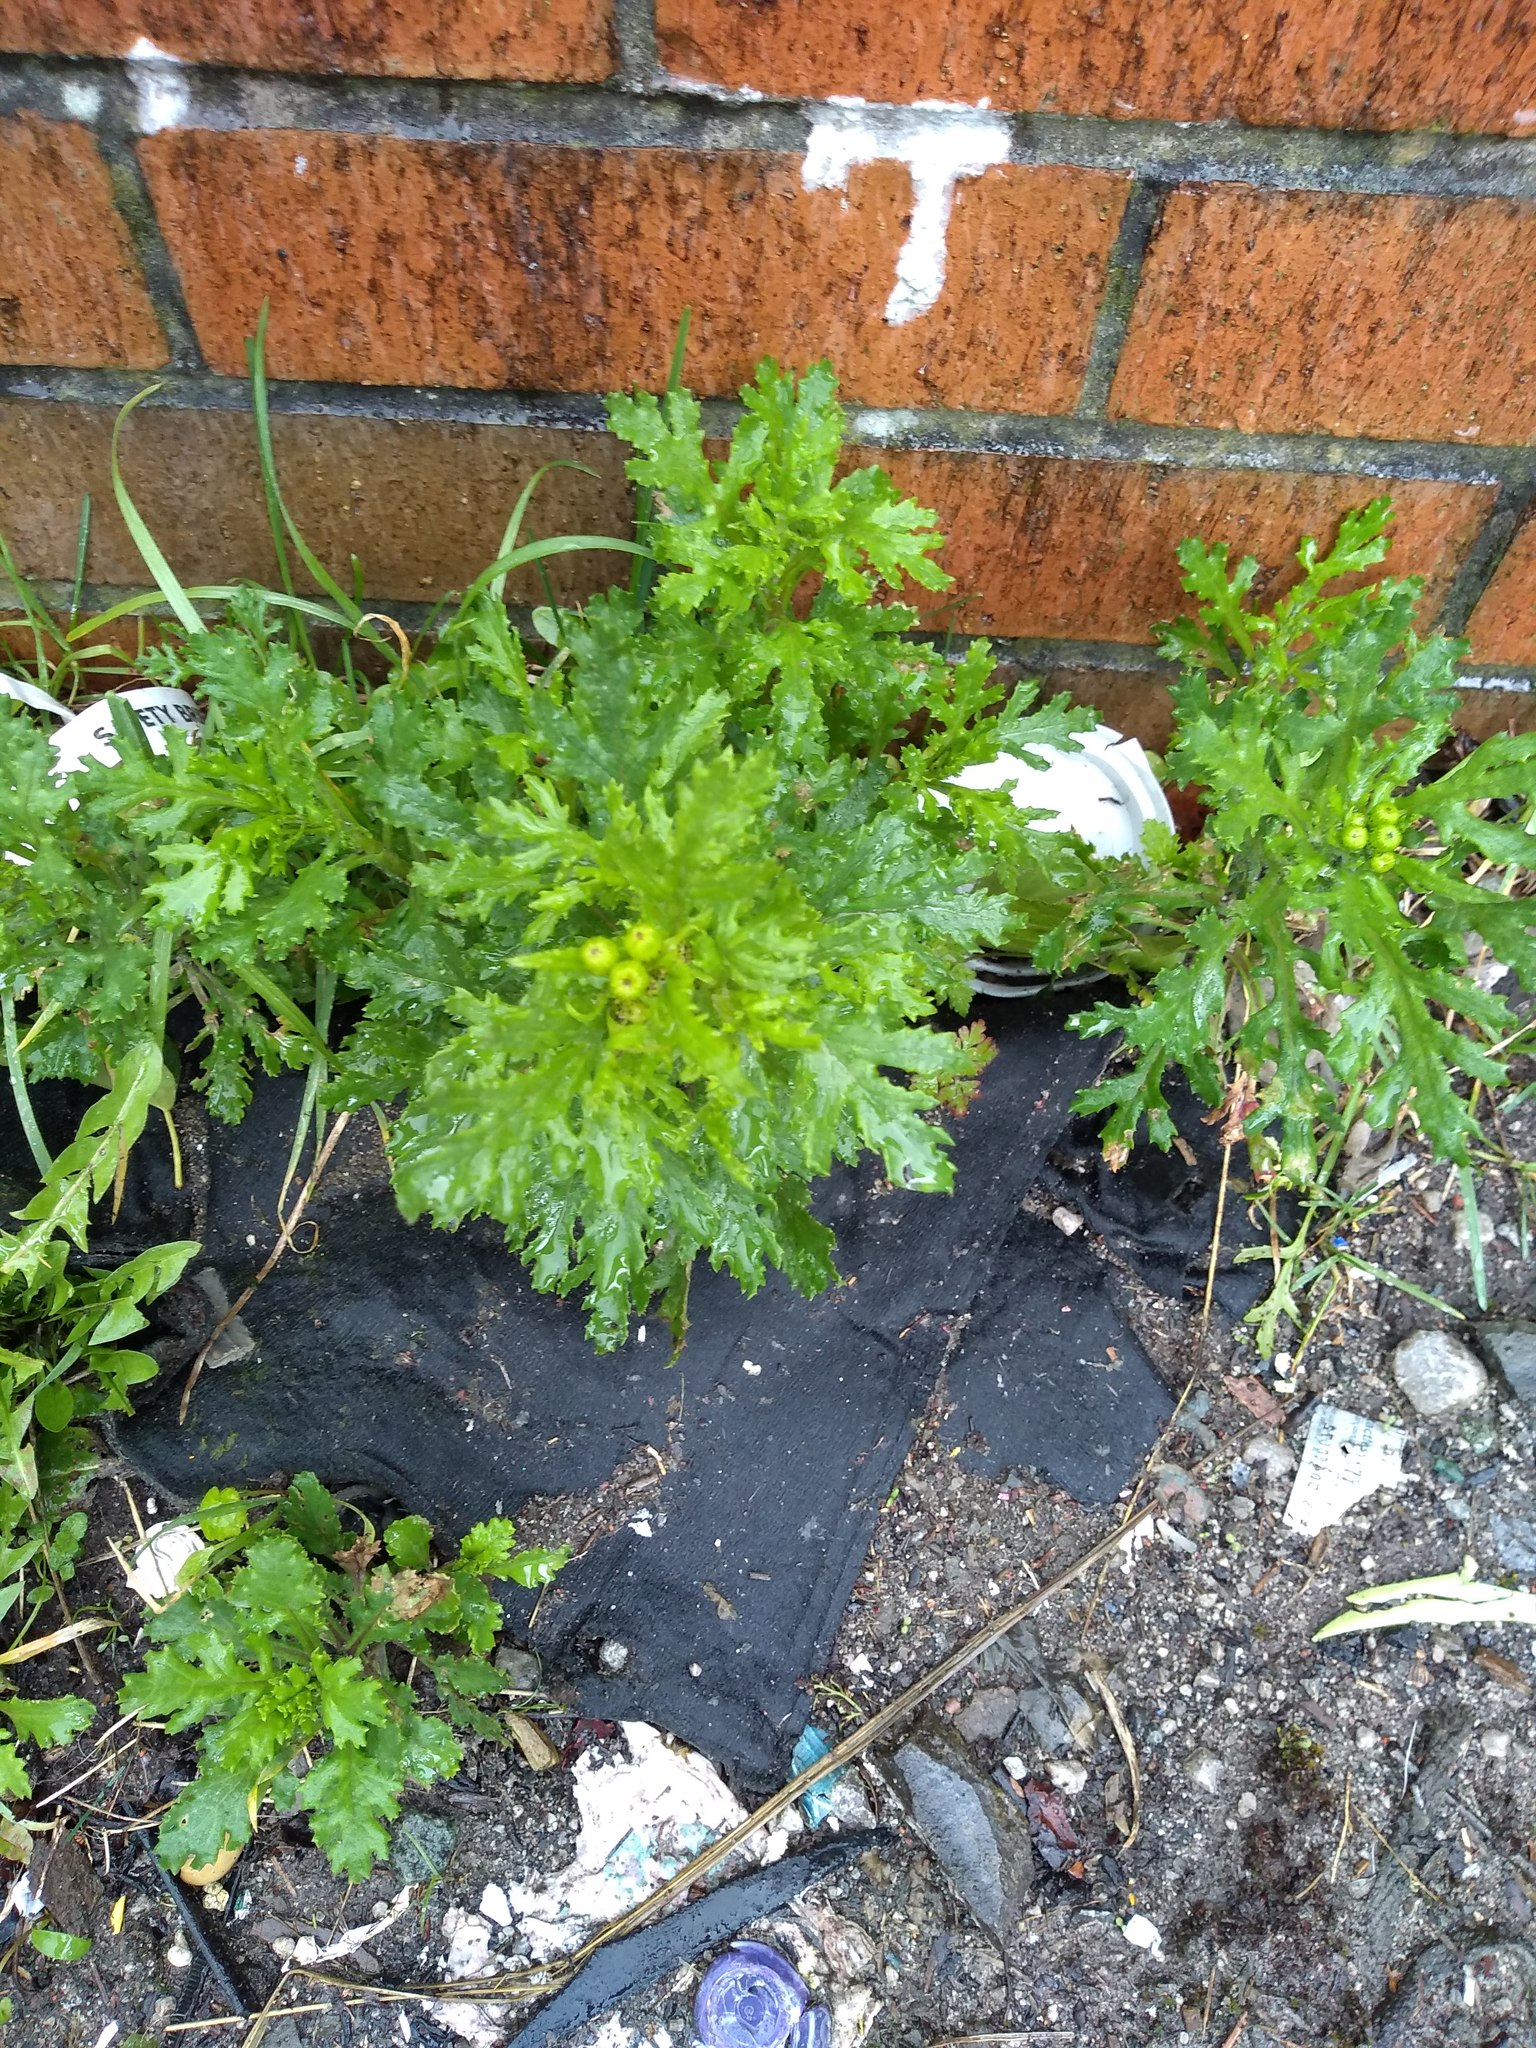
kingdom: Plantae
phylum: Tracheophyta
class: Magnoliopsida
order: Asterales
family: Asteraceae
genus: Senecio
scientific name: Senecio squalidus
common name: Oxford ragwort
